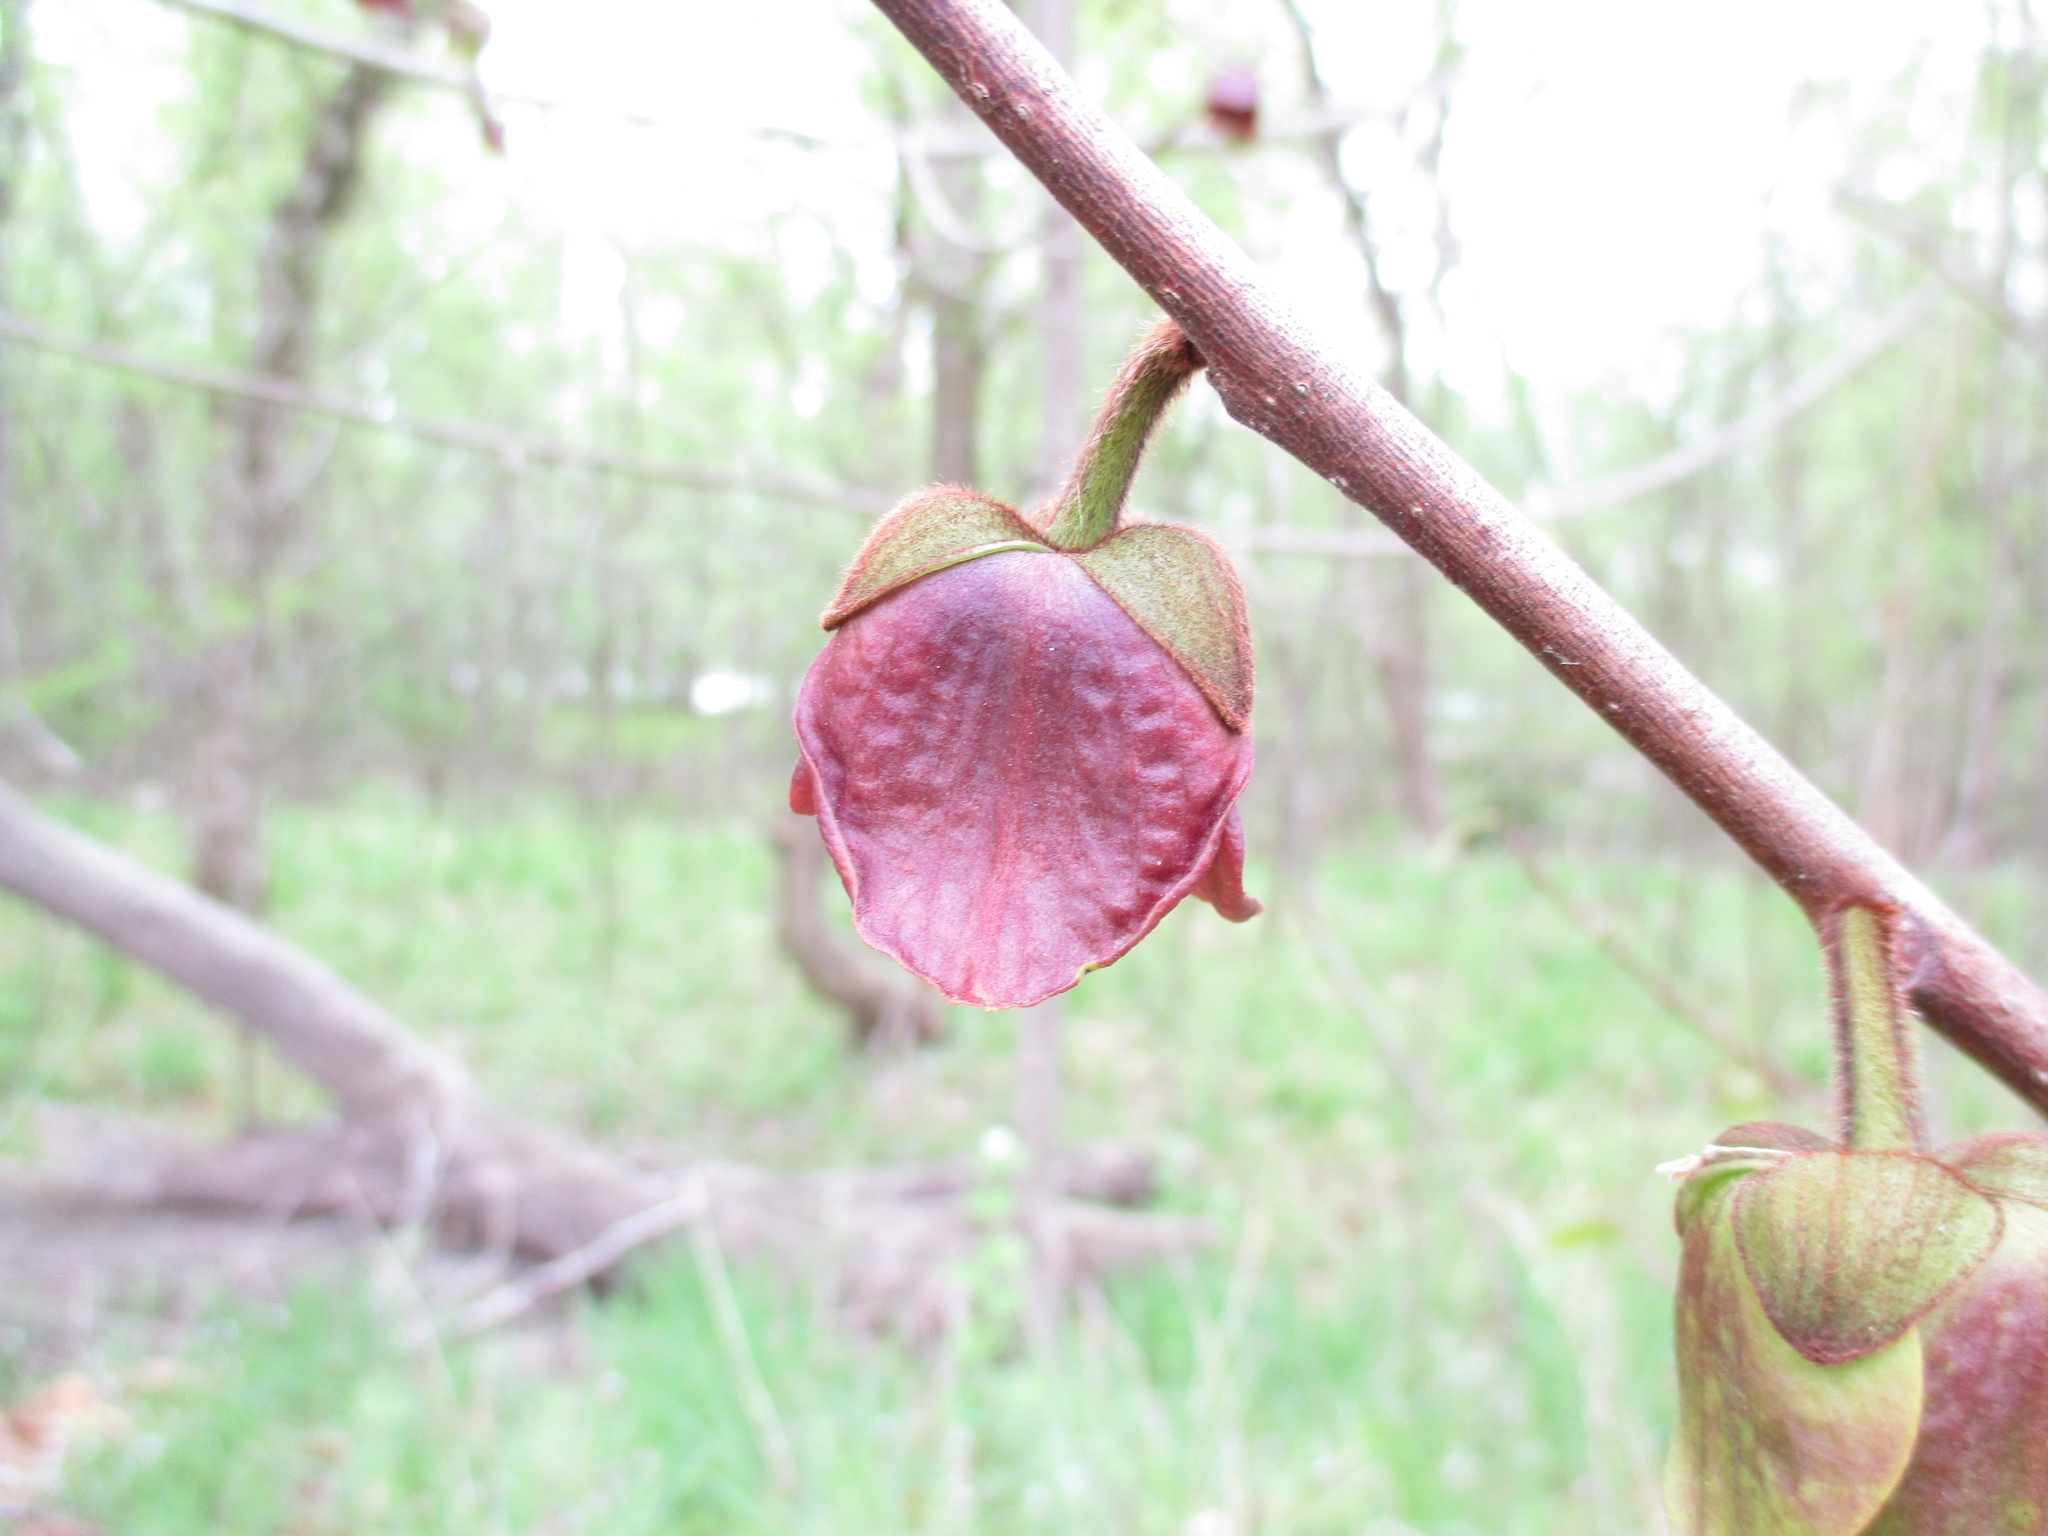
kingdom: Plantae
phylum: Tracheophyta
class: Magnoliopsida
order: Magnoliales
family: Annonaceae
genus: Asimina
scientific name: Asimina triloba
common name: Dog-banana
